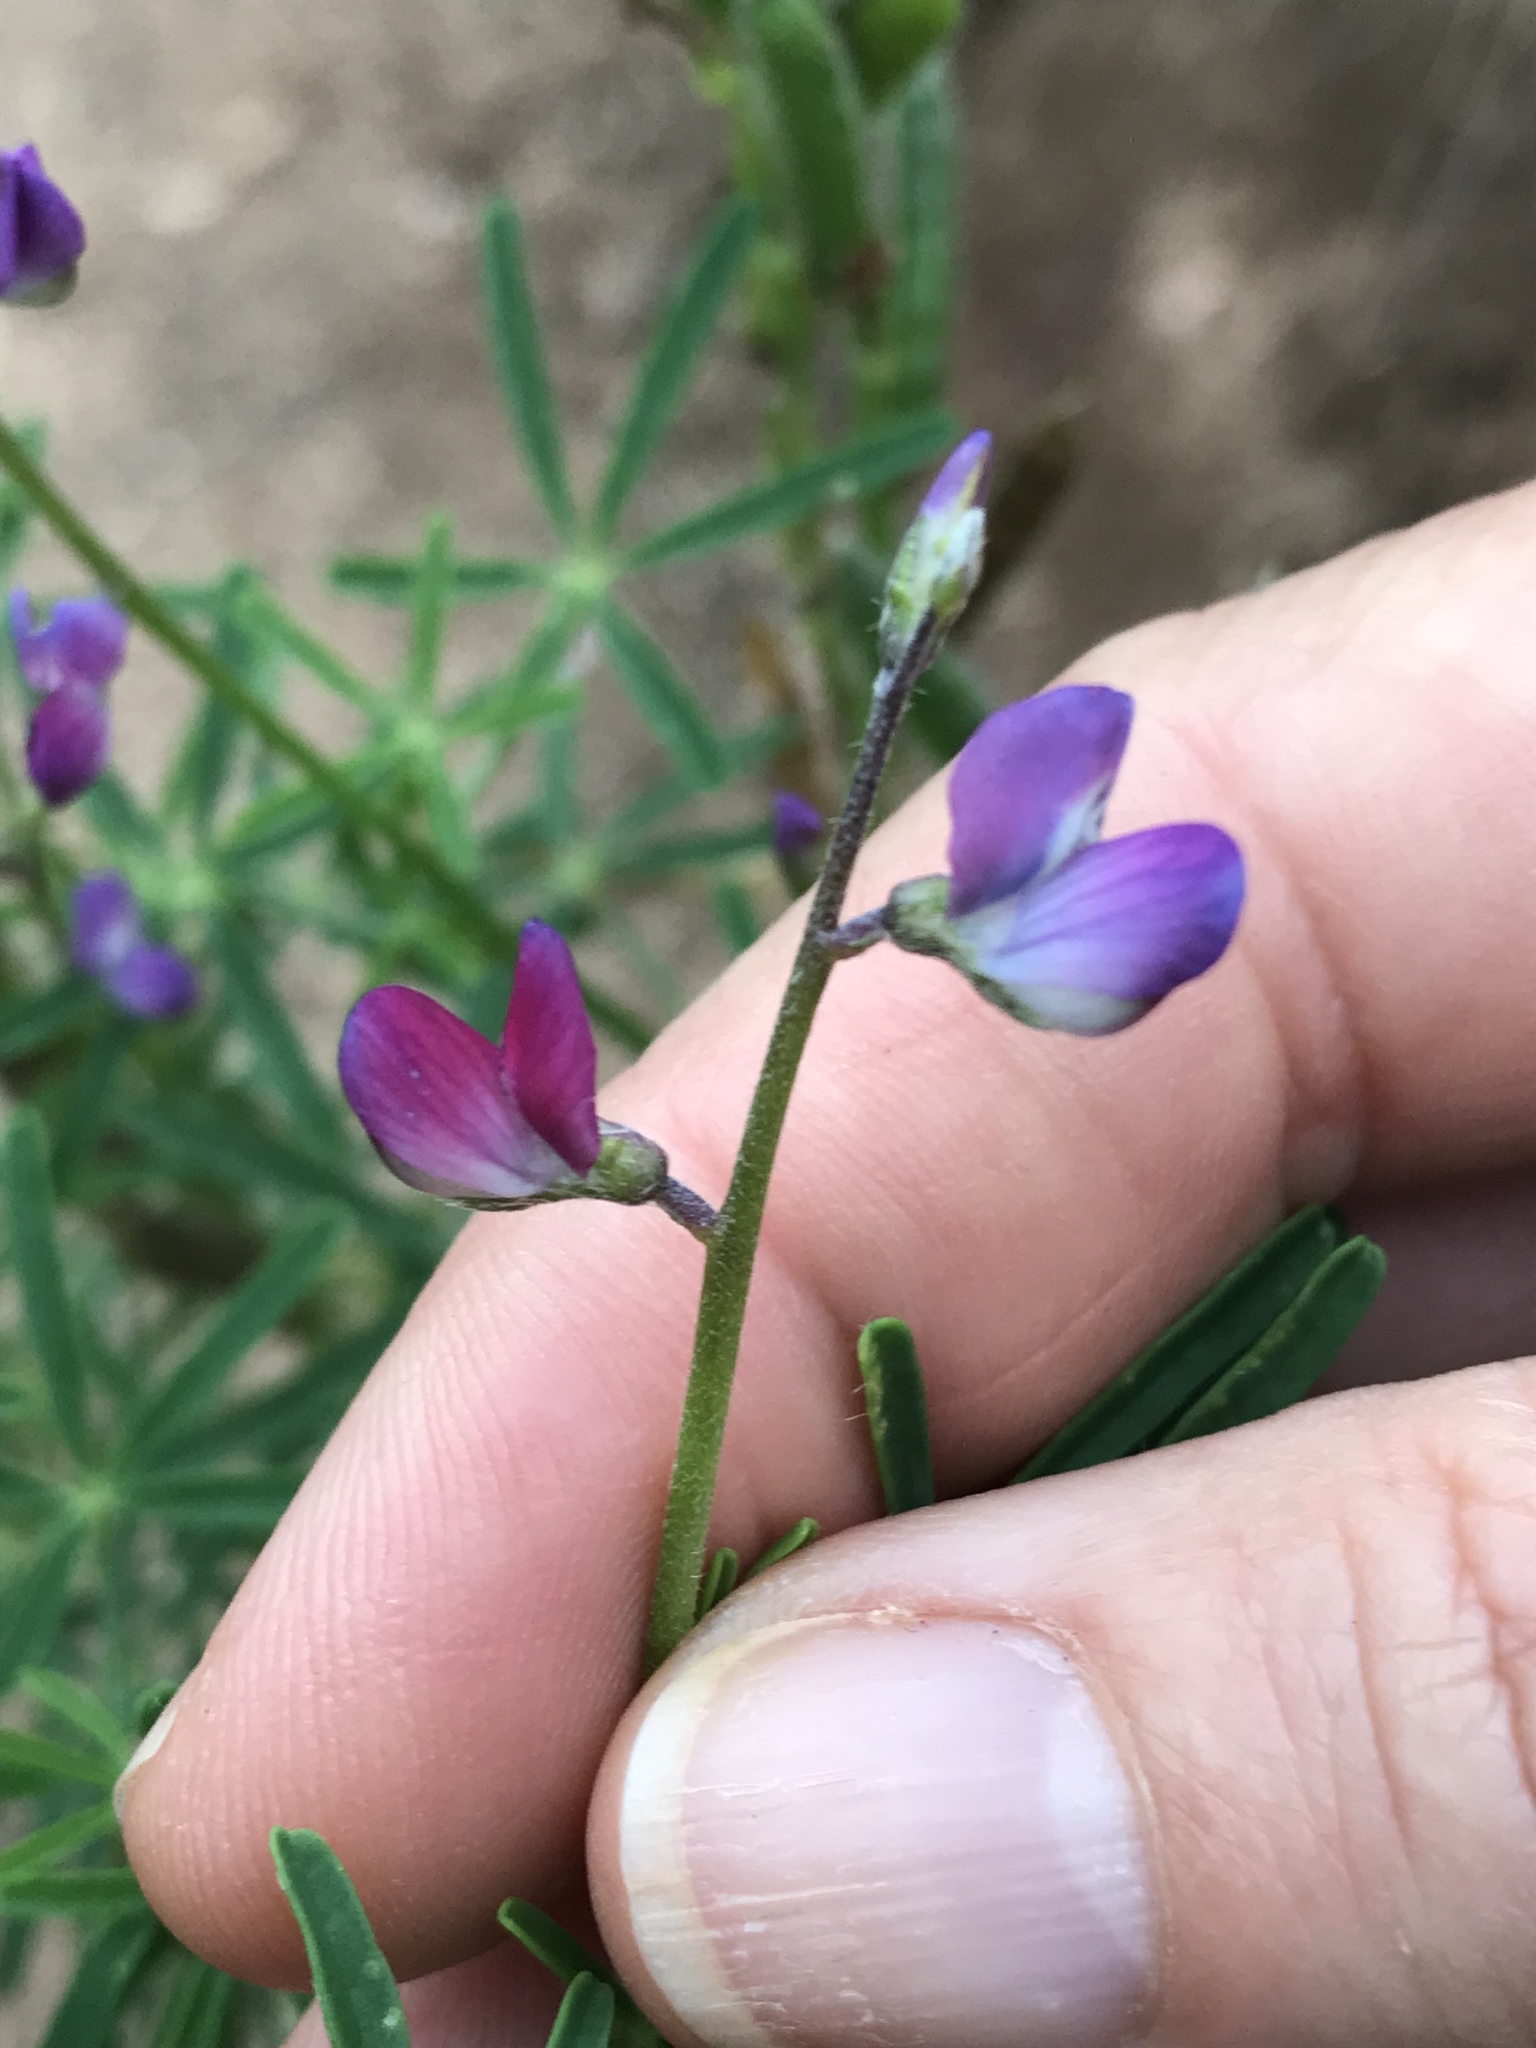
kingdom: Plantae
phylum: Tracheophyta
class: Magnoliopsida
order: Fabales
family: Fabaceae
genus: Lupinus
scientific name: Lupinus truncatus
